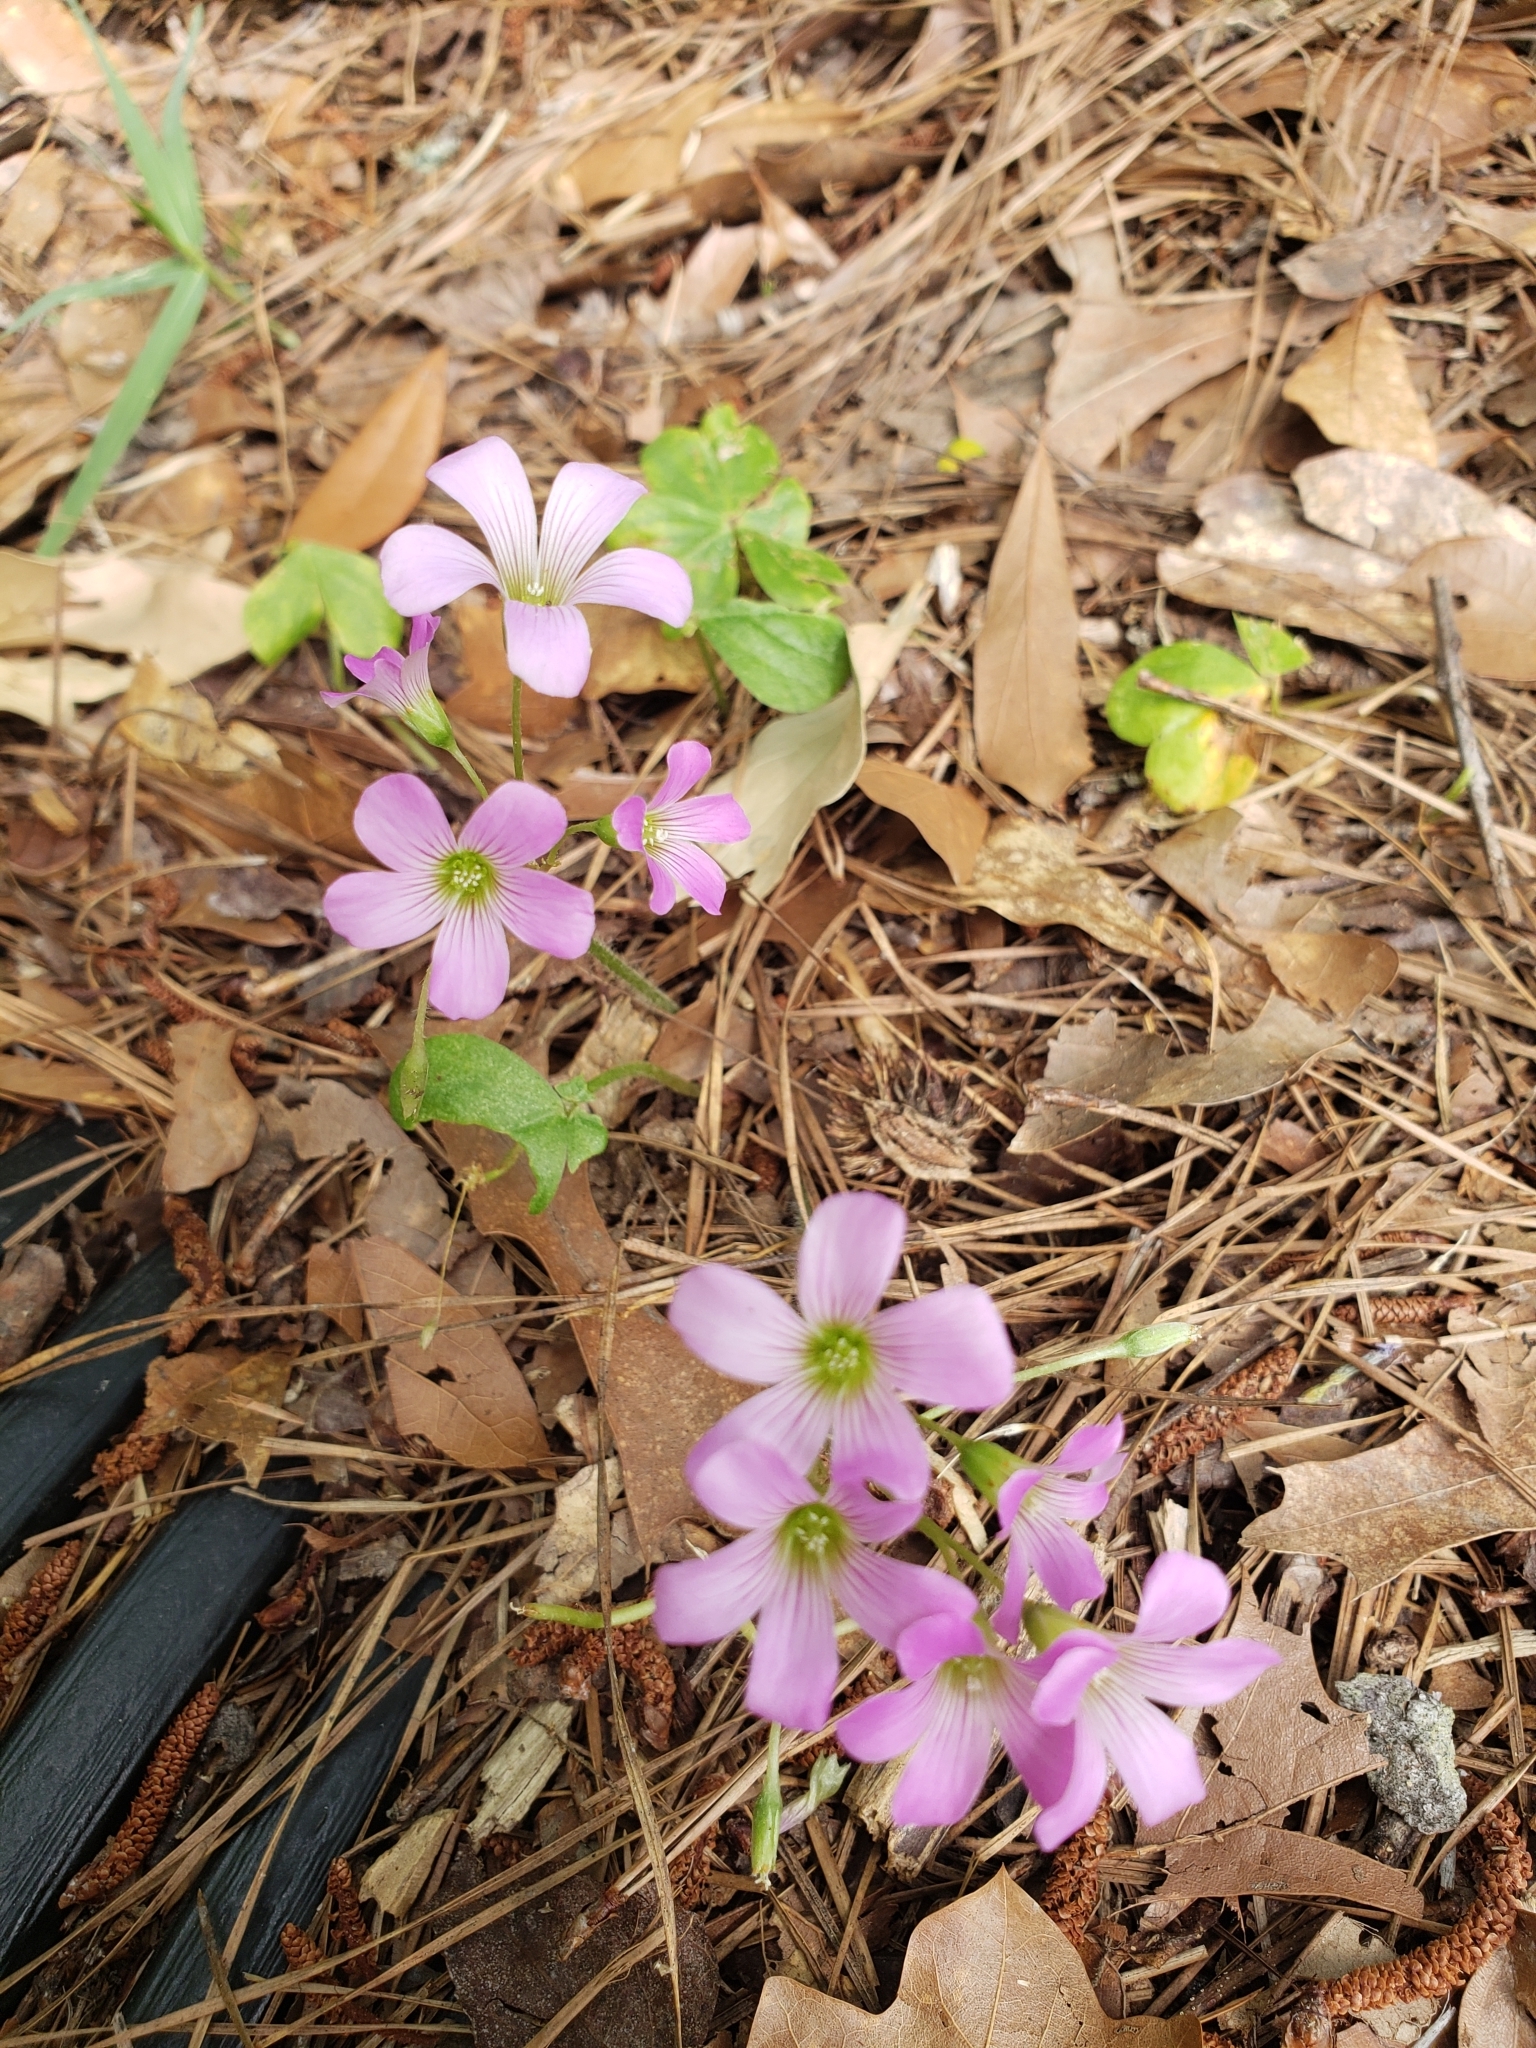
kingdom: Plantae
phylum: Tracheophyta
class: Magnoliopsida
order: Oxalidales
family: Oxalidaceae
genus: Oxalis
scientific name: Oxalis debilis
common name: Large-flowered pink-sorrel
